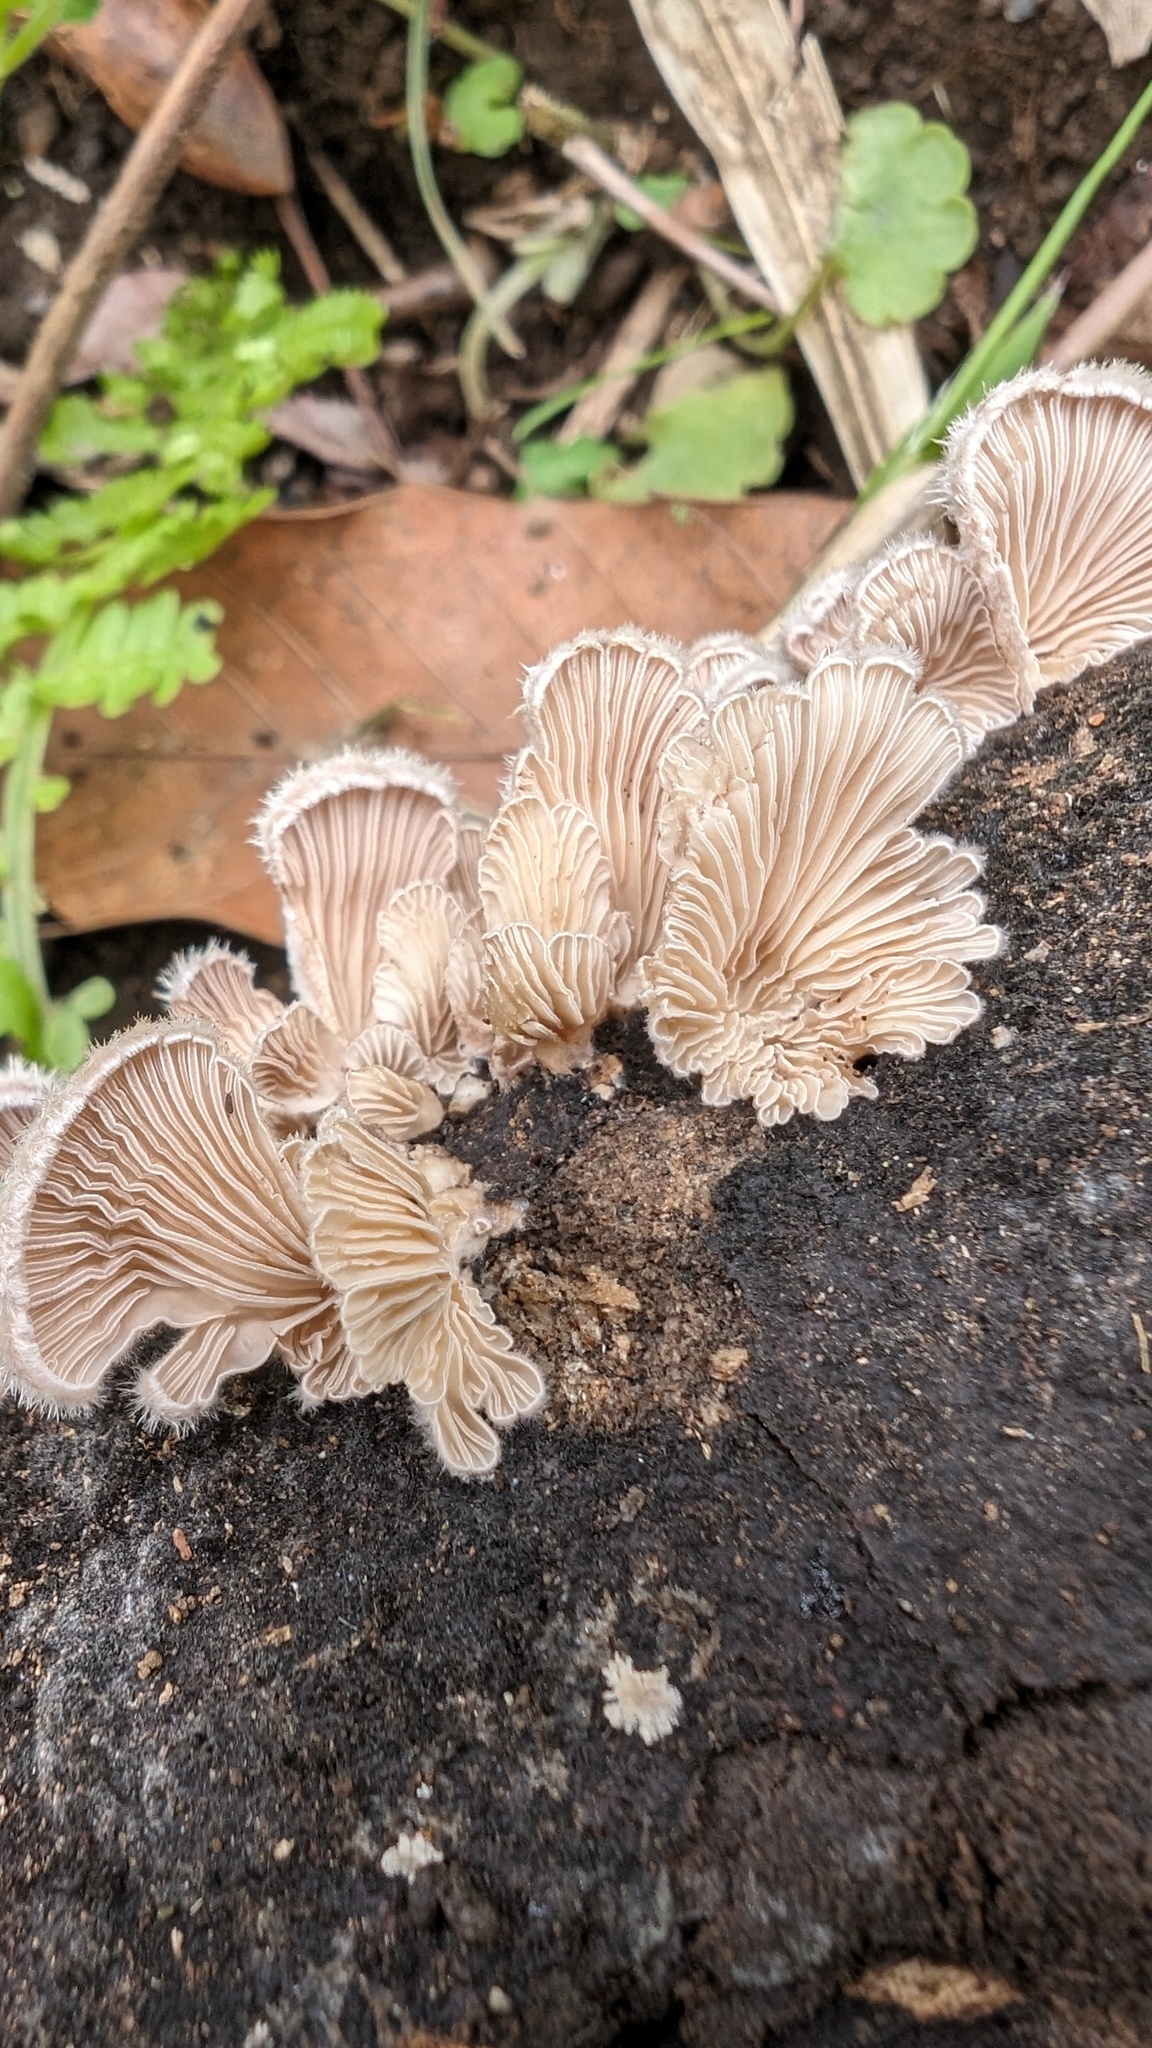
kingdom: Fungi
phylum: Basidiomycota
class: Agaricomycetes
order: Agaricales
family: Schizophyllaceae
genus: Schizophyllum
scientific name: Schizophyllum commune
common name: Common porecrust
